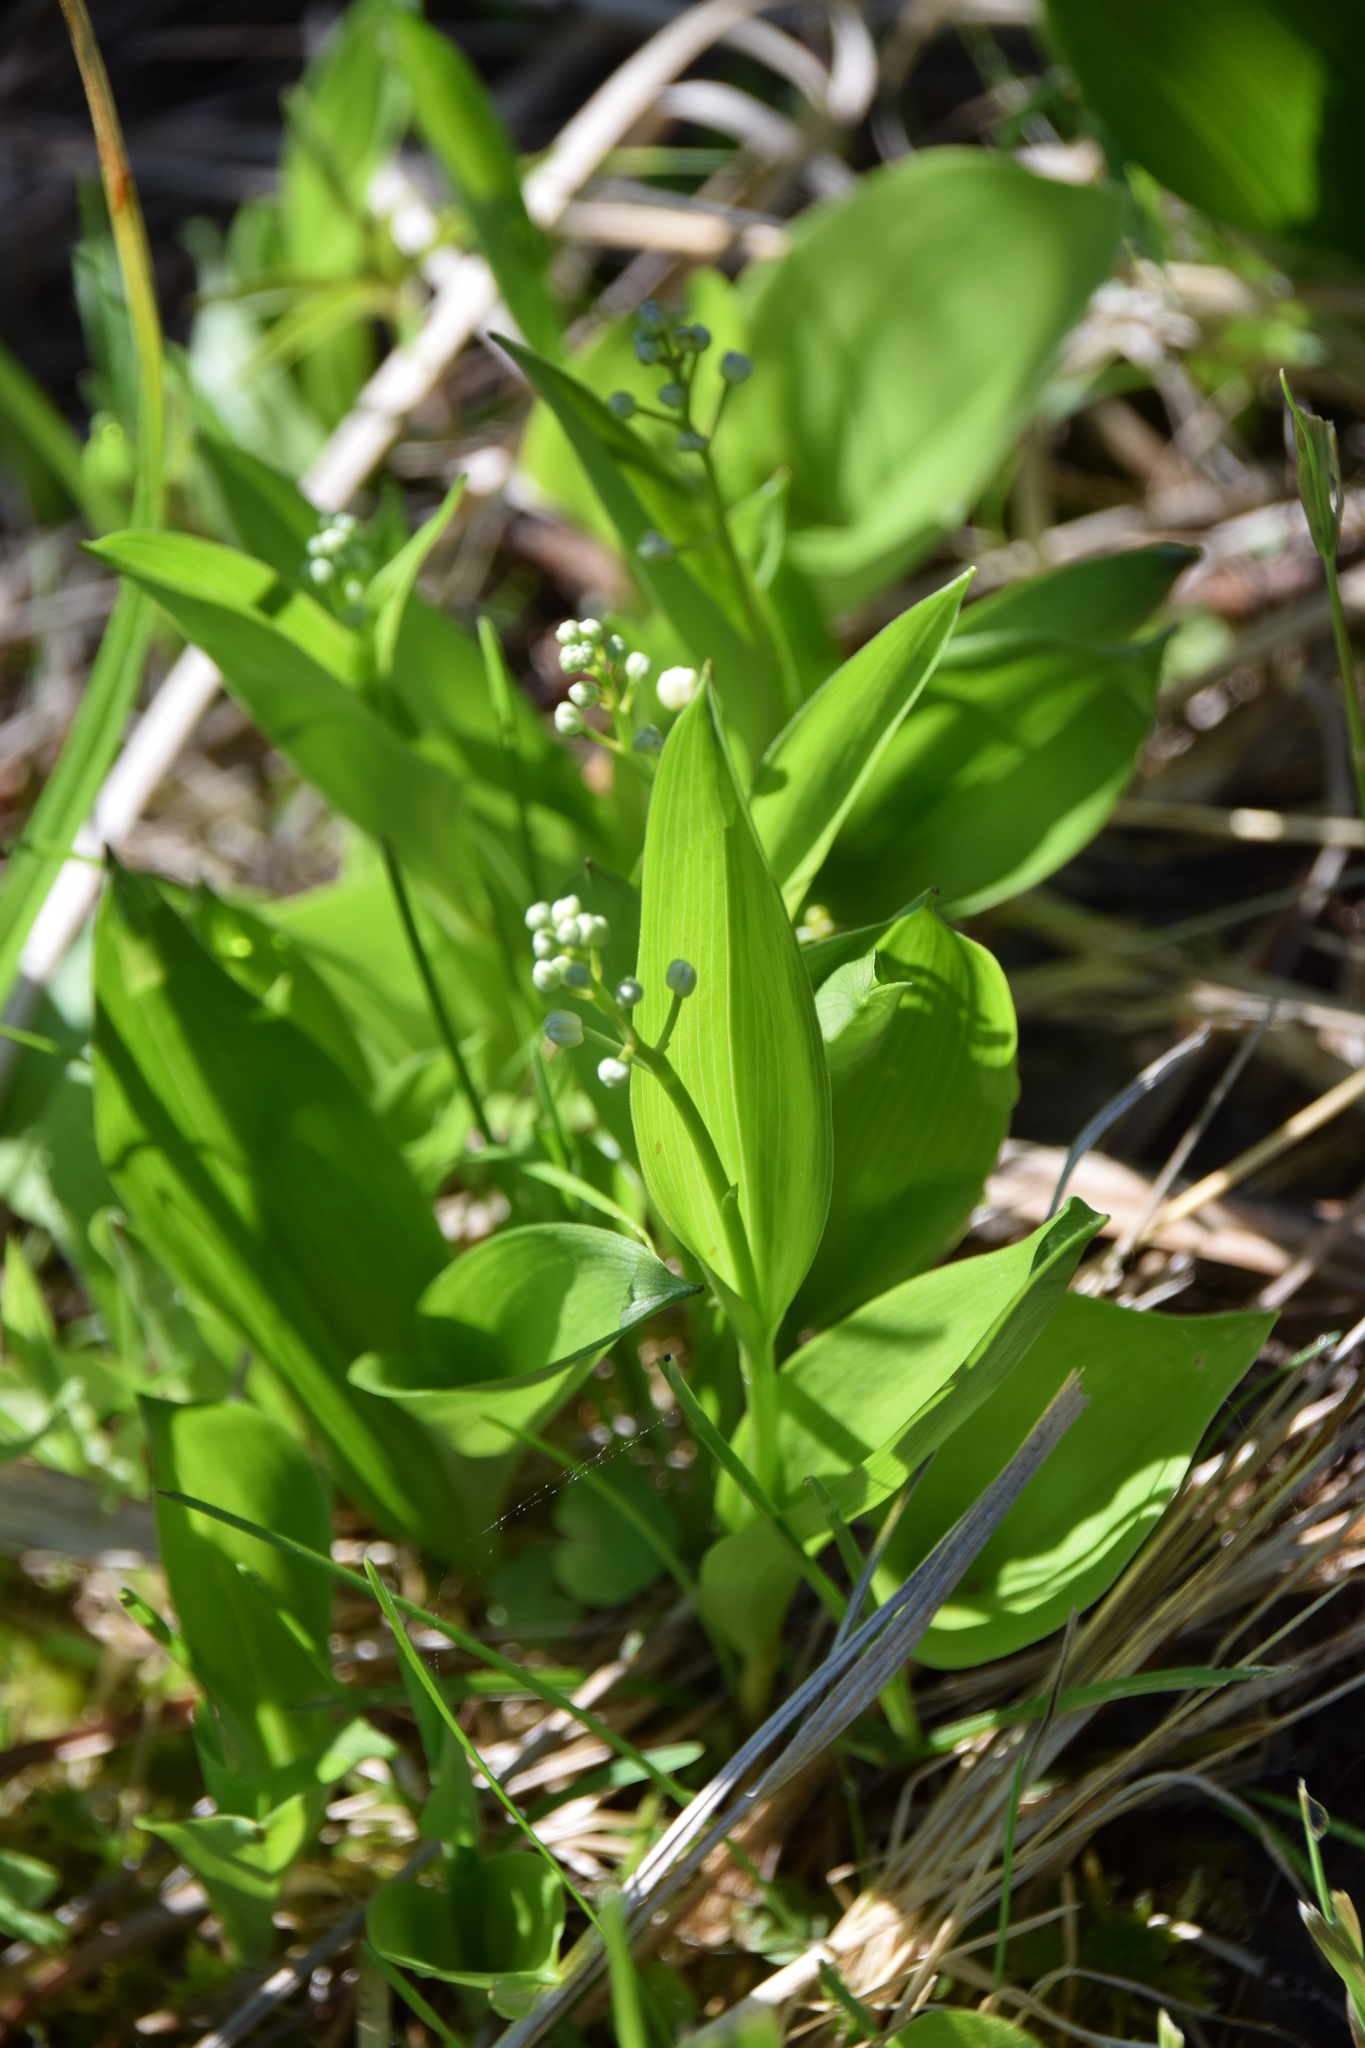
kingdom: Plantae
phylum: Tracheophyta
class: Liliopsida
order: Asparagales
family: Asparagaceae
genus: Maianthemum
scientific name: Maianthemum trifolium
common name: Swamp false solomon's seal
